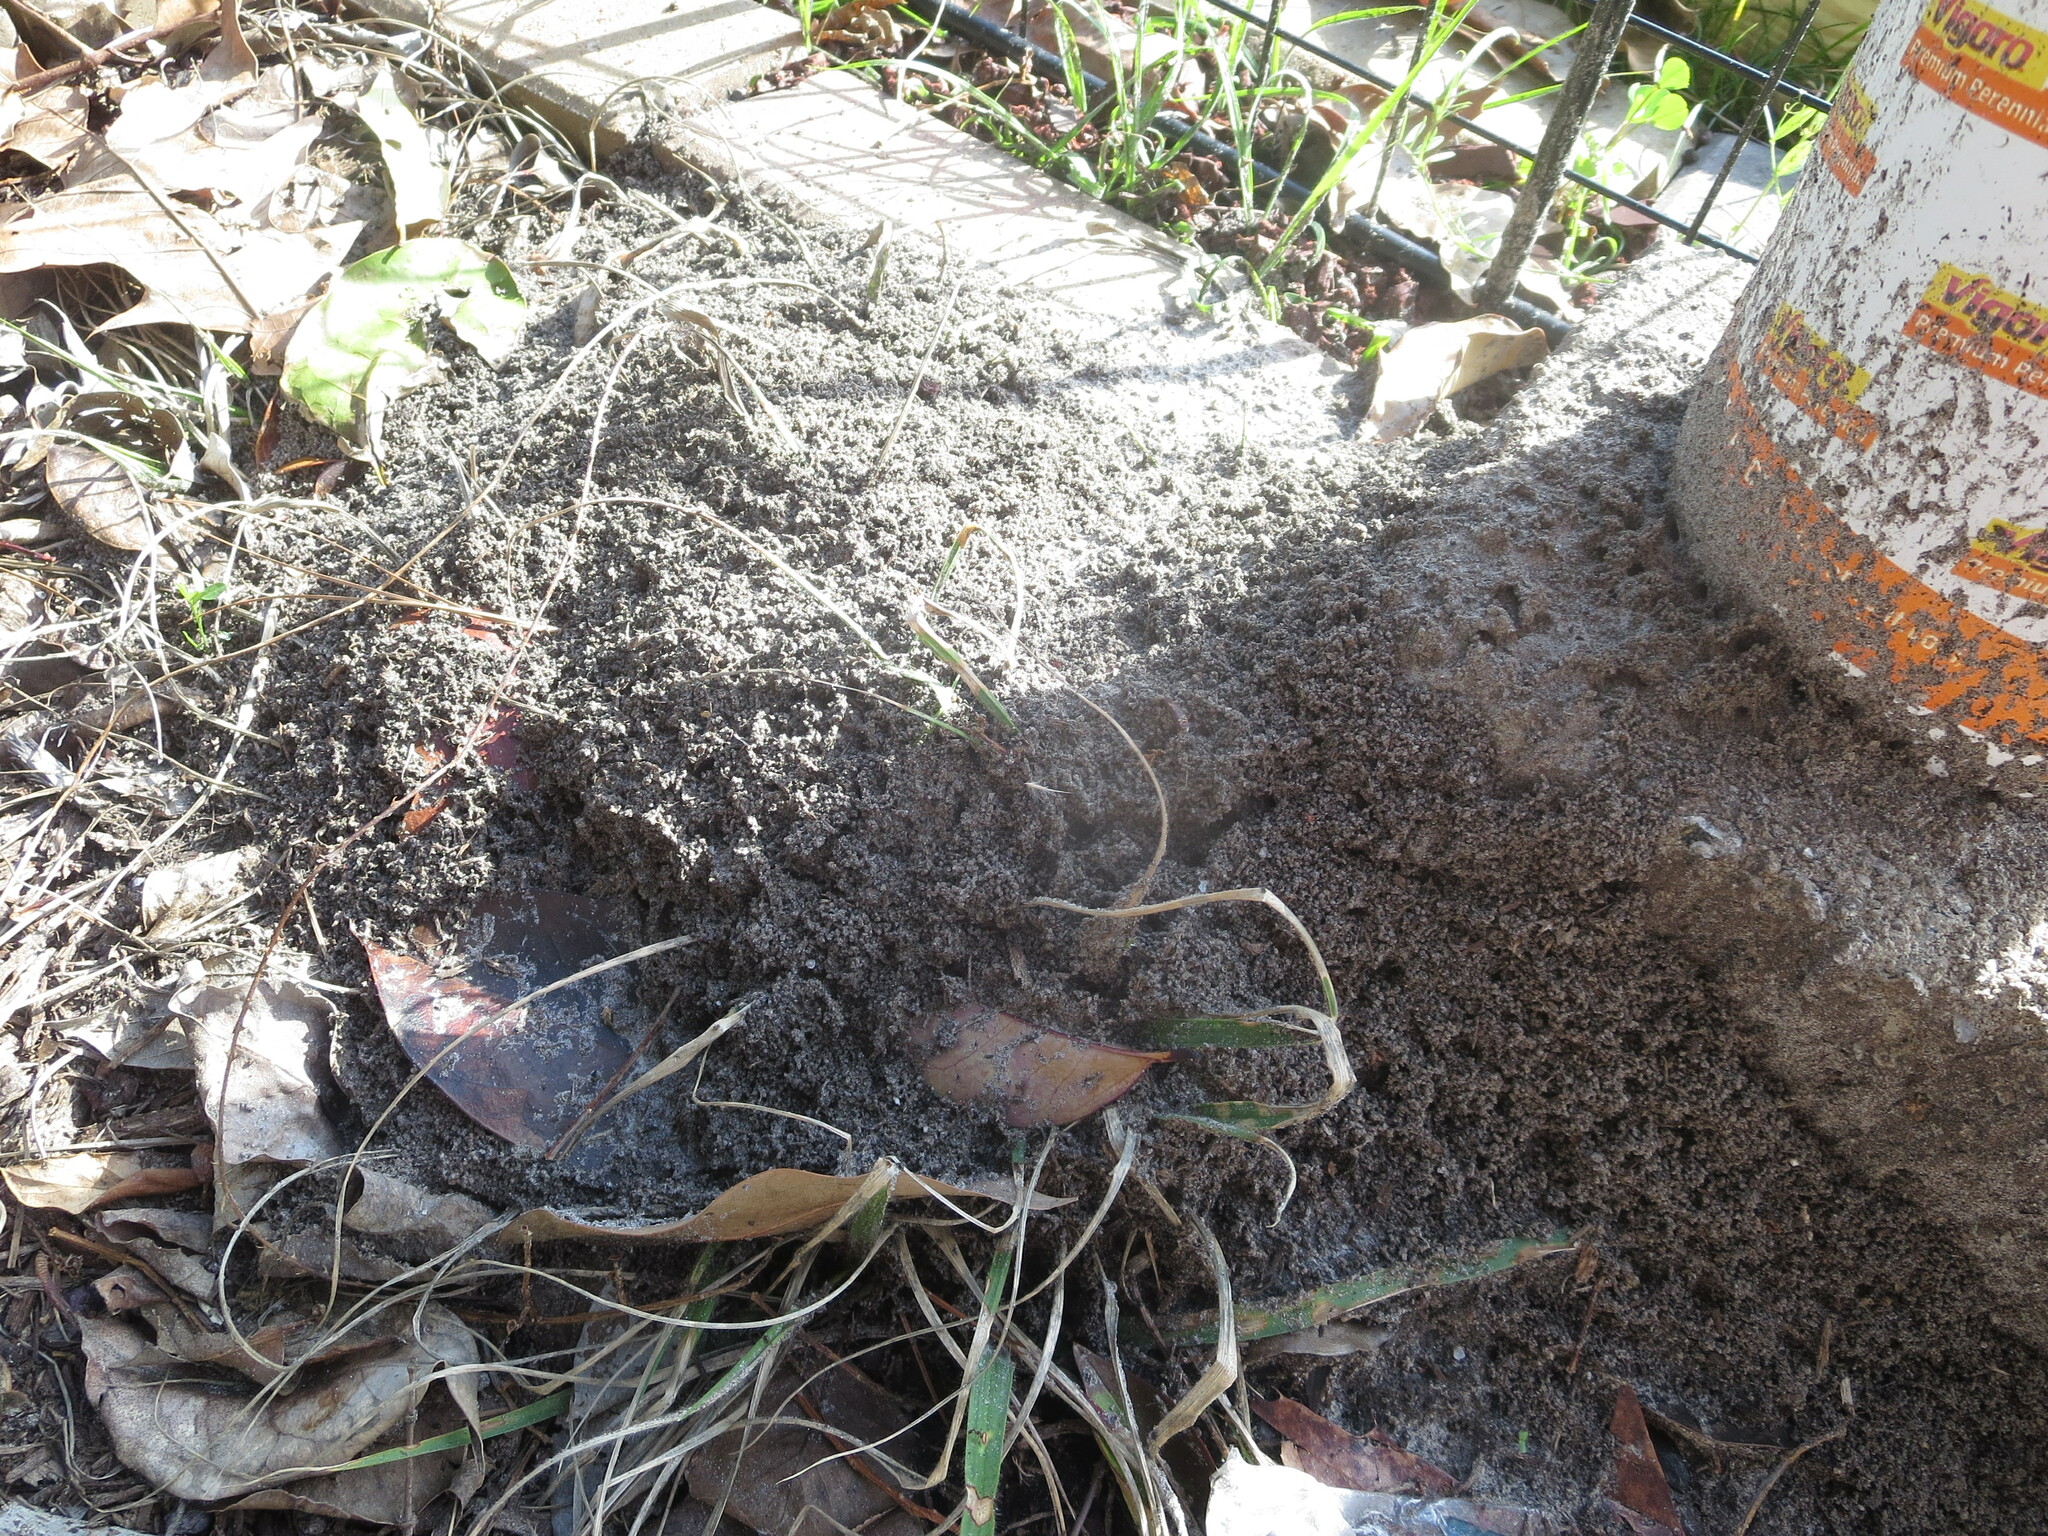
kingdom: Animalia
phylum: Arthropoda
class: Insecta
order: Hymenoptera
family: Formicidae
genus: Solenopsis
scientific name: Solenopsis invicta
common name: Red imported fire ant
